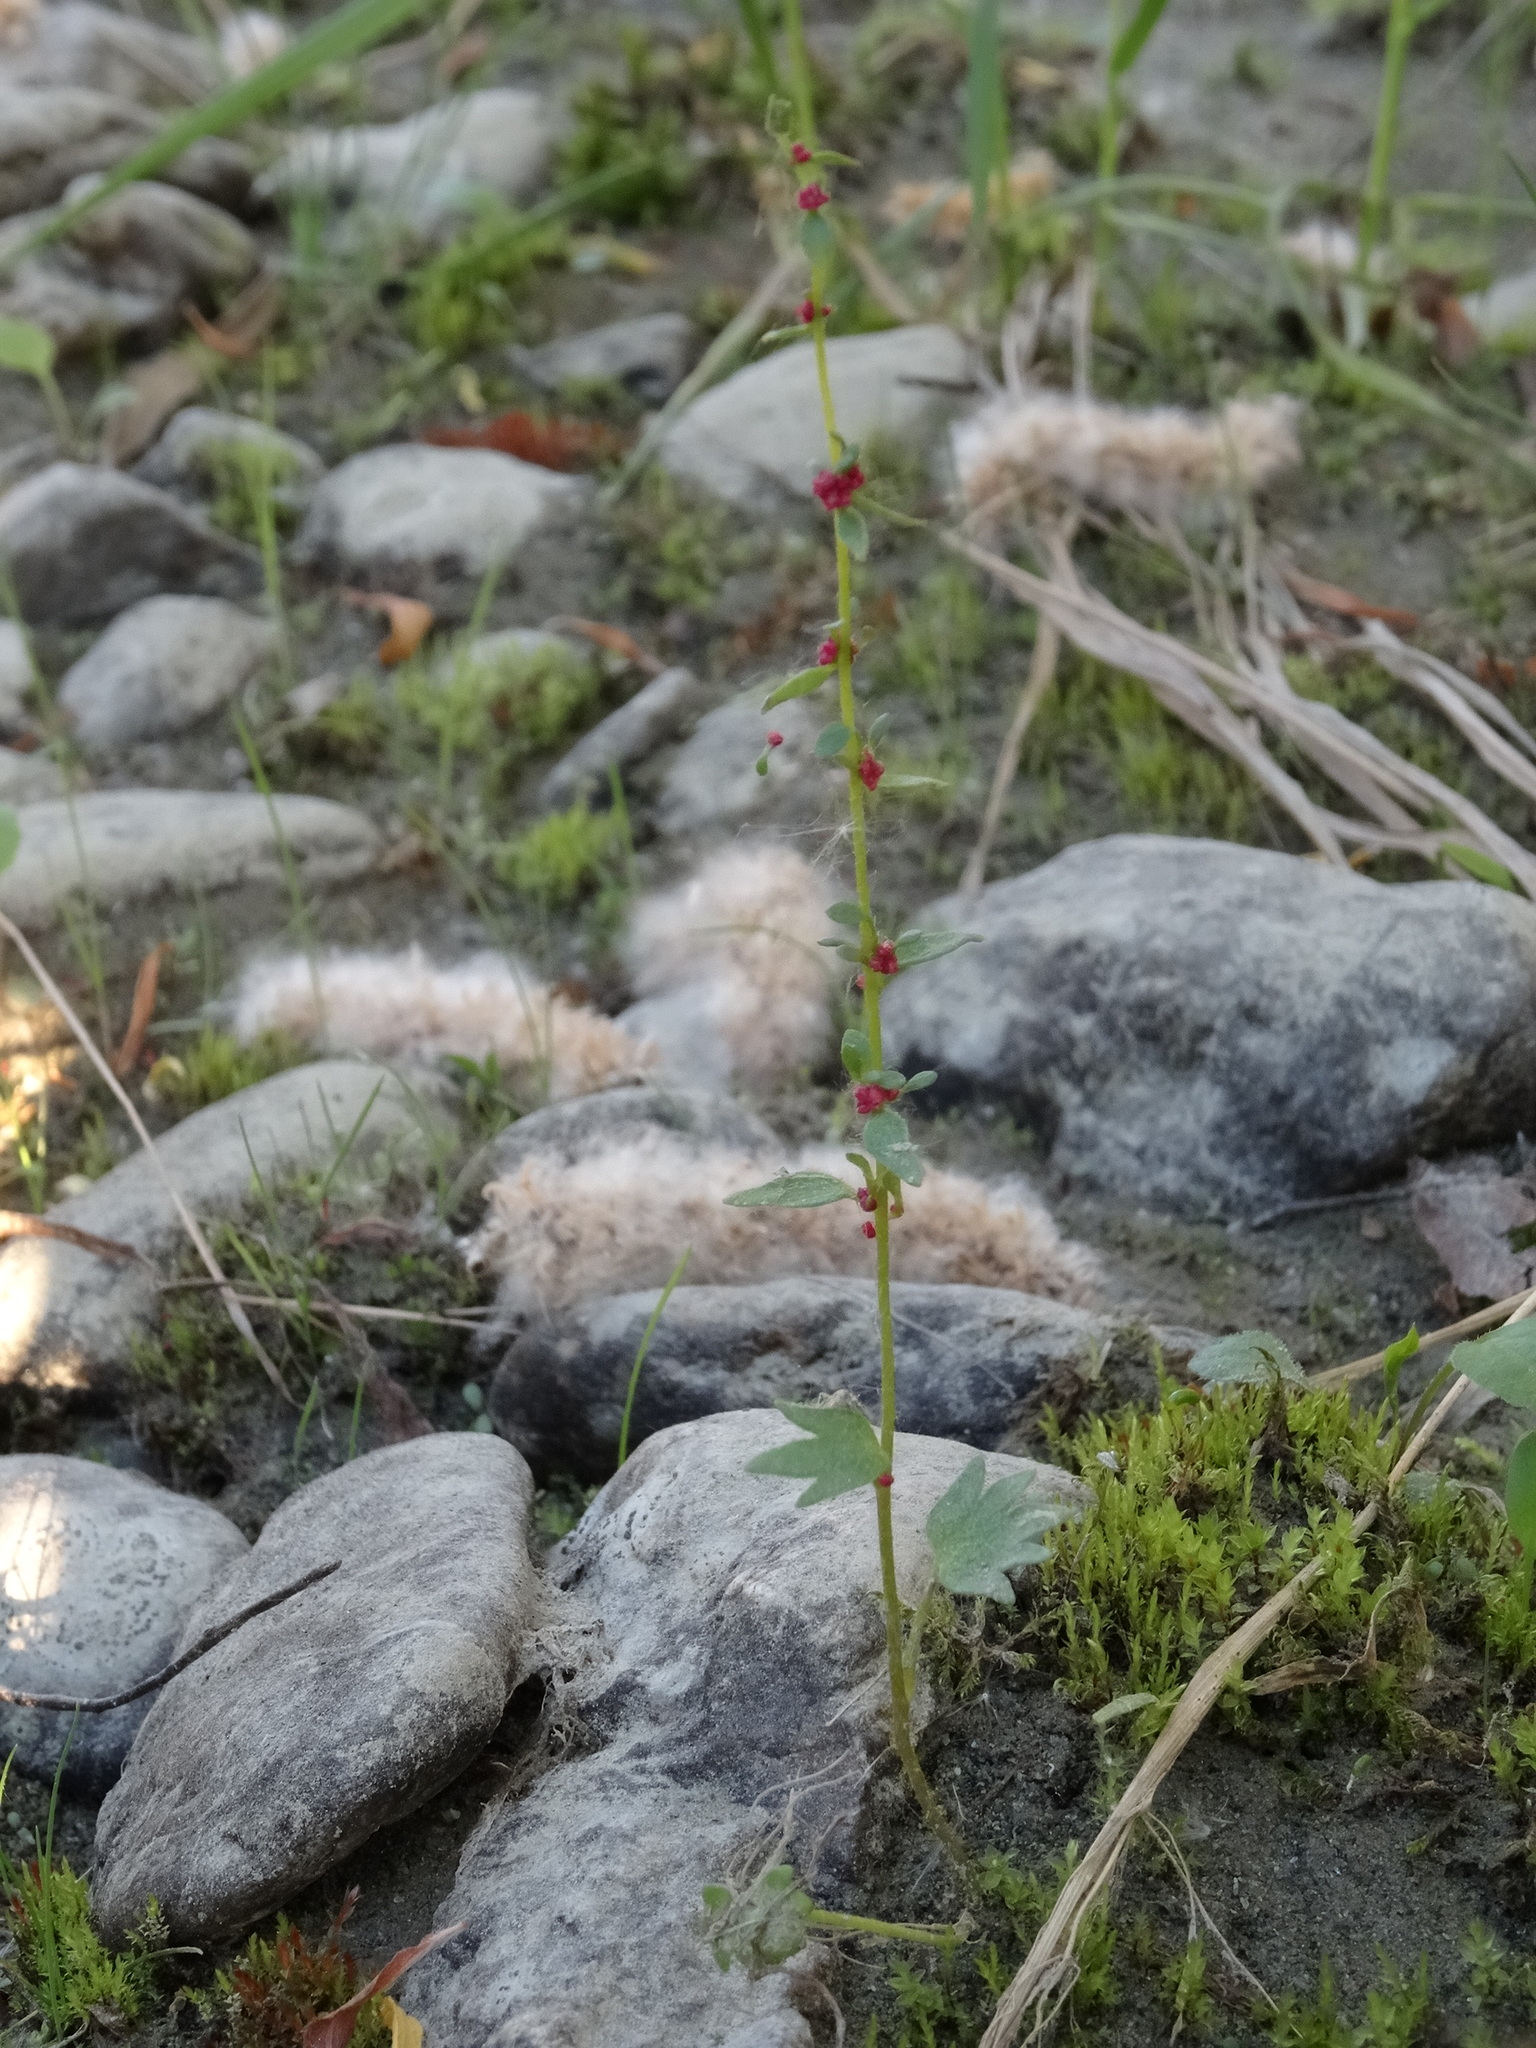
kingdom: Plantae
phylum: Tracheophyta
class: Magnoliopsida
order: Saxifragales
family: Saxifragaceae
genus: Saxifraga
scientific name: Saxifraga cernua
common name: Drooping saxifrage
